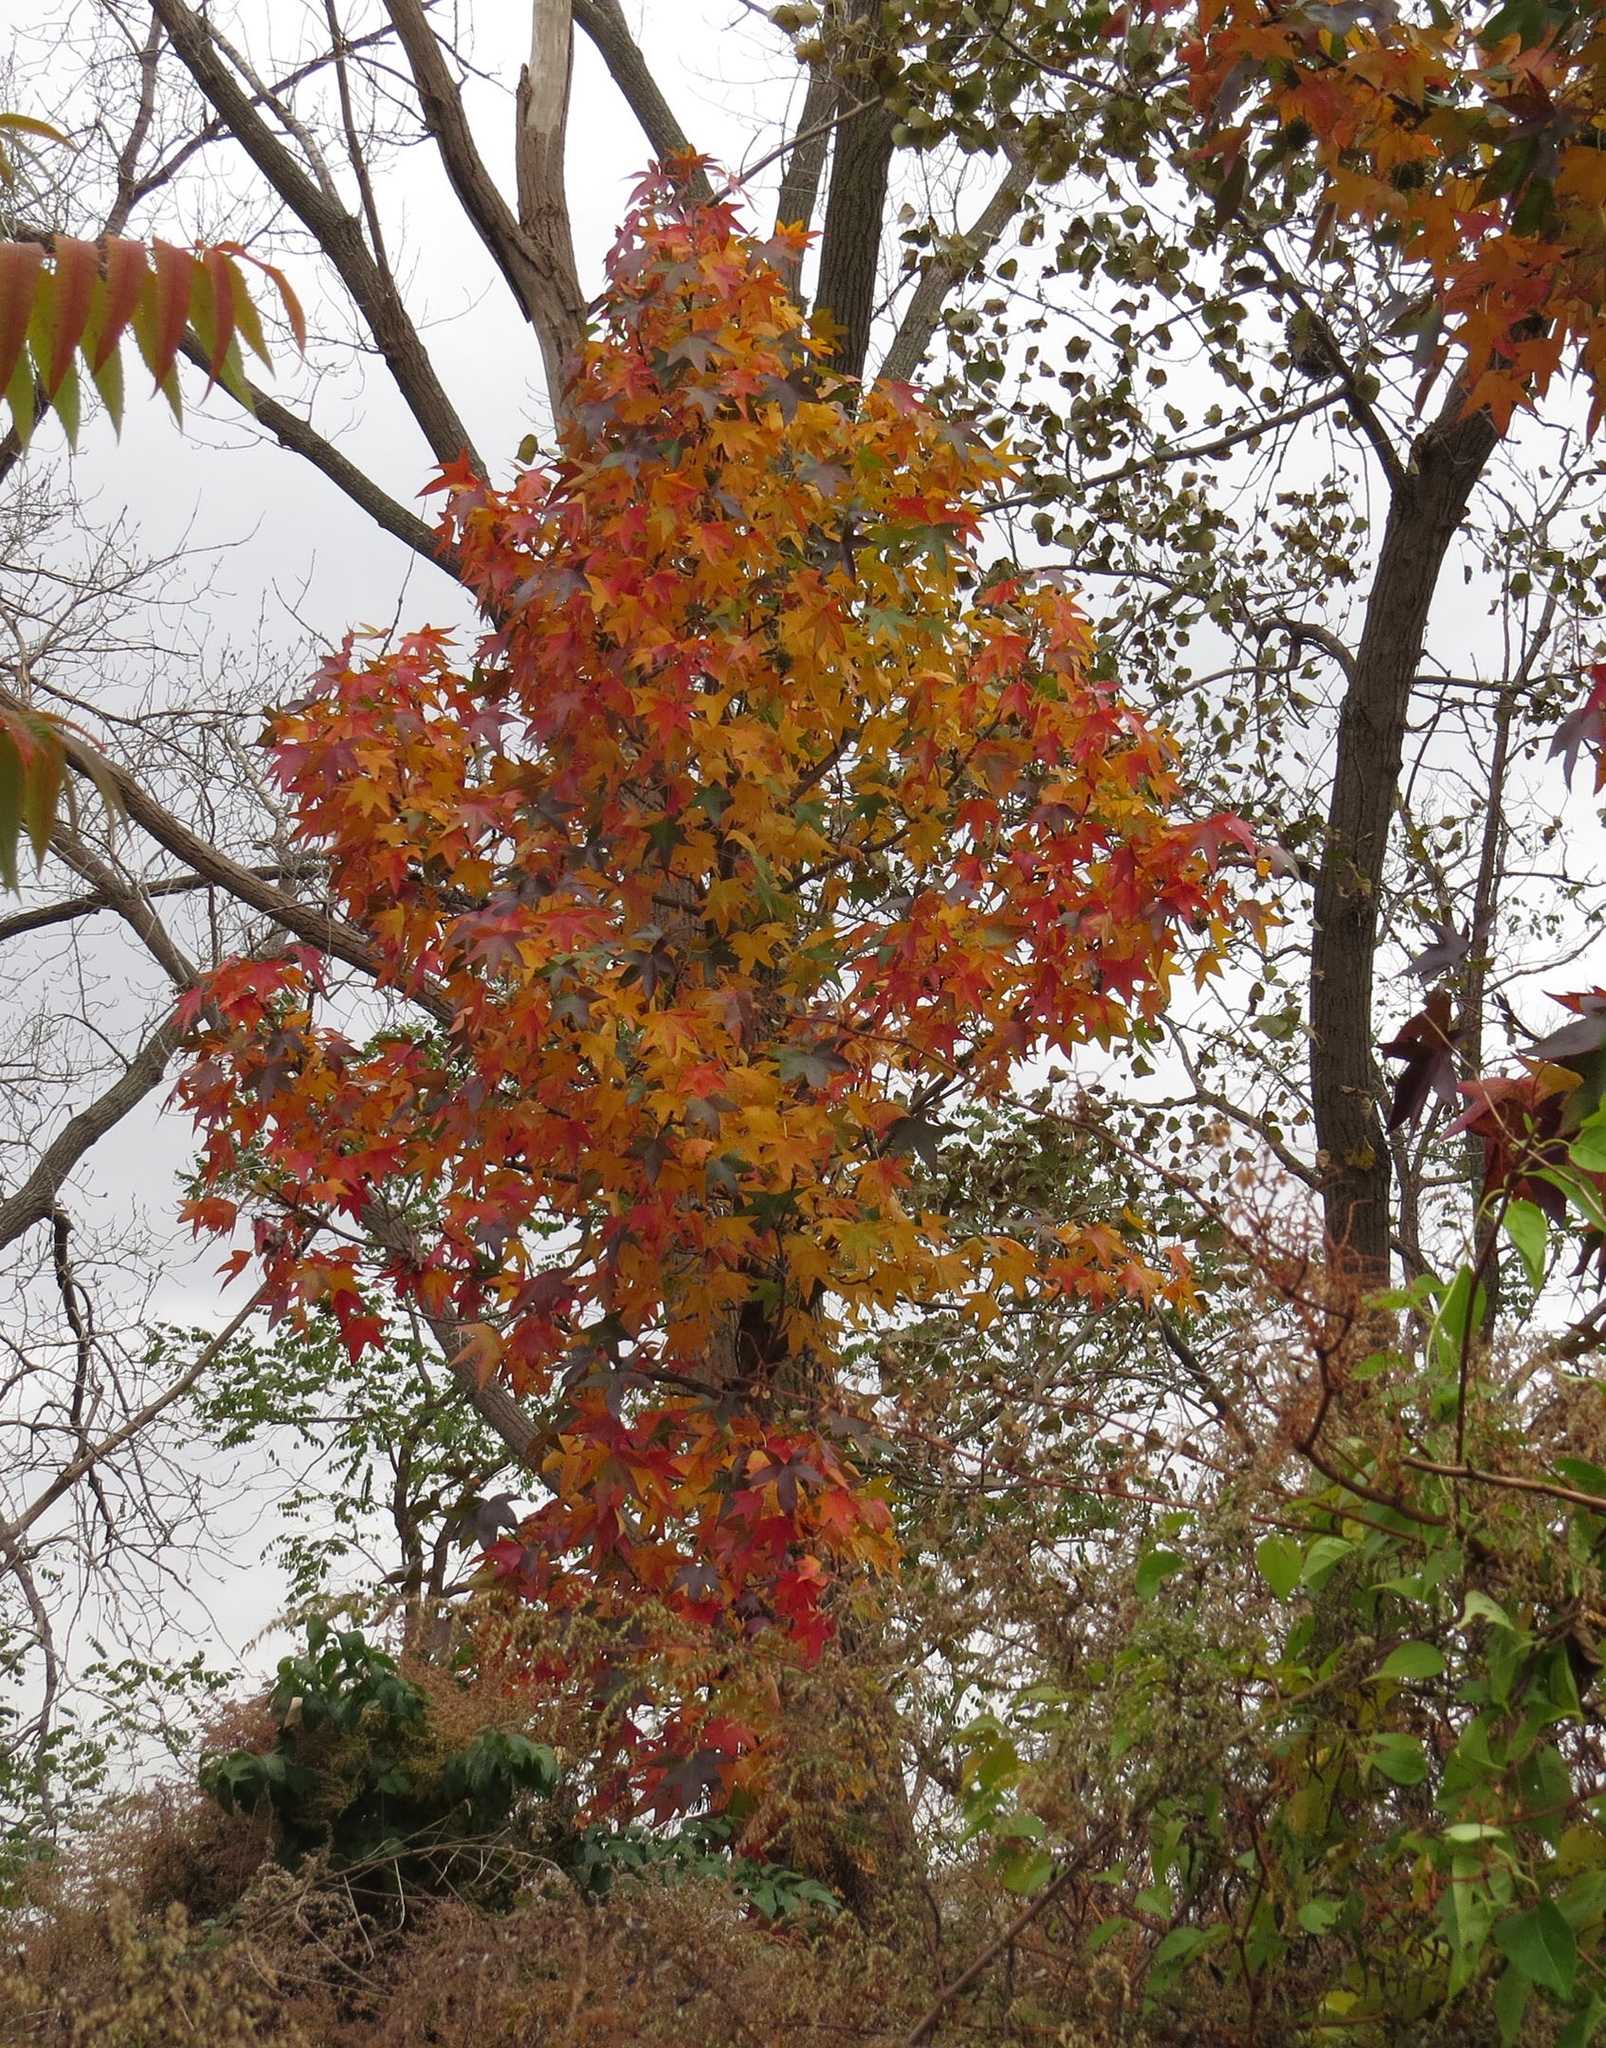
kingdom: Plantae
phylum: Tracheophyta
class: Magnoliopsida
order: Saxifragales
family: Altingiaceae
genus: Liquidambar
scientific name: Liquidambar styraciflua
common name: Sweet gum
